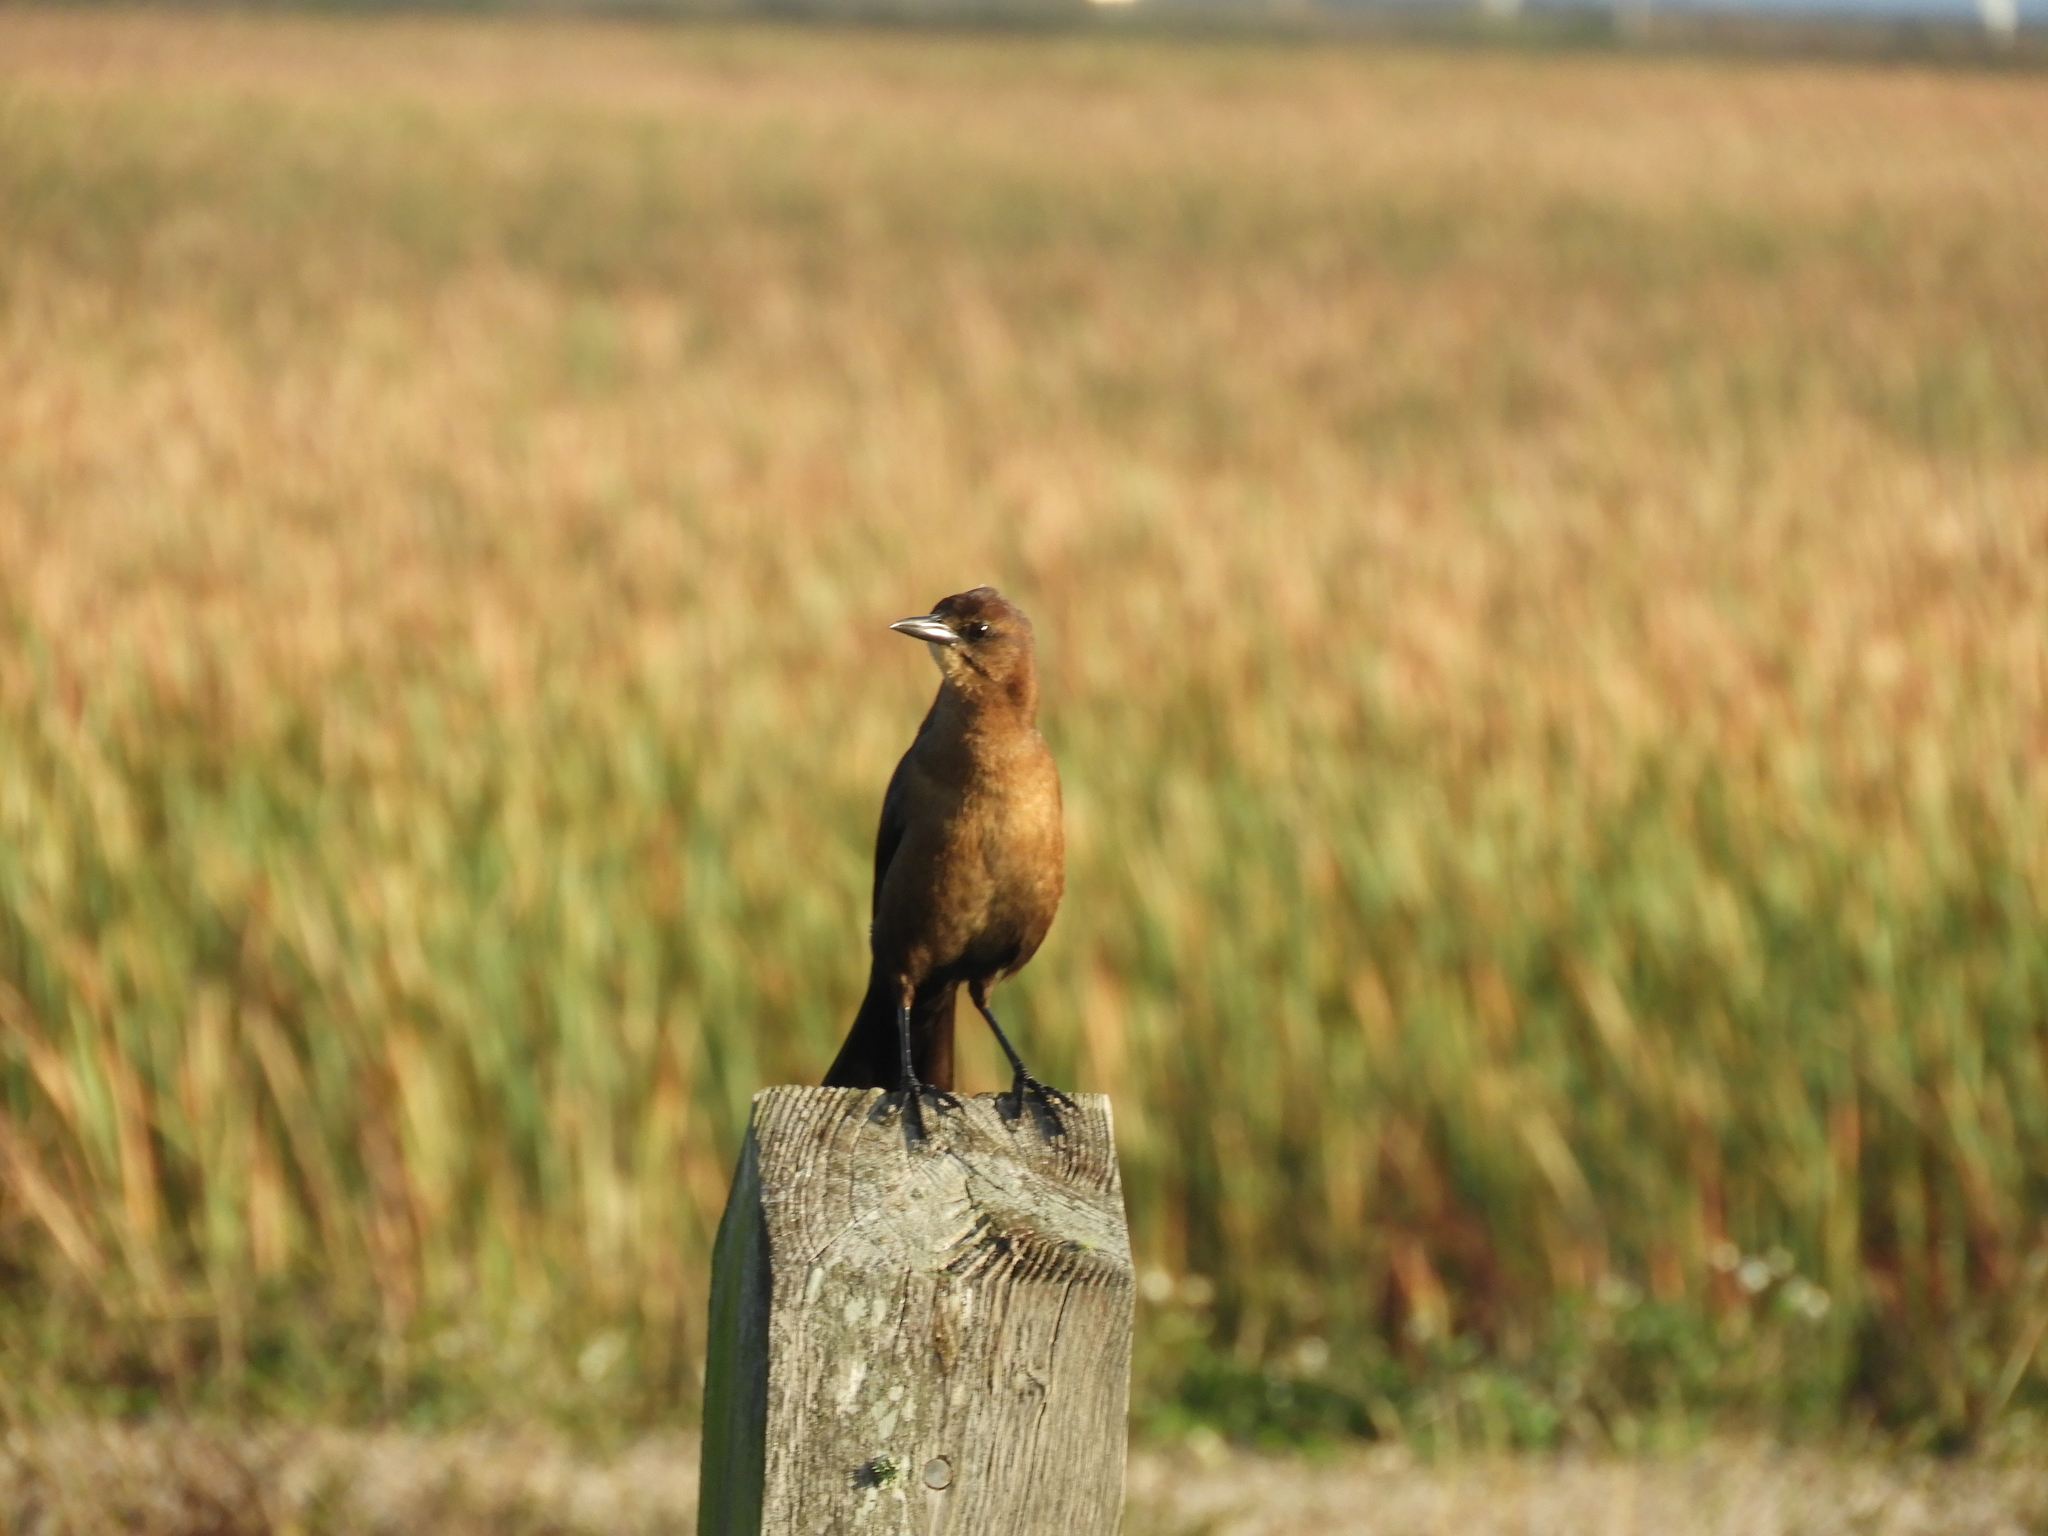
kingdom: Animalia
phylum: Chordata
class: Aves
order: Passeriformes
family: Icteridae
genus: Quiscalus
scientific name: Quiscalus major
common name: Boat-tailed grackle
